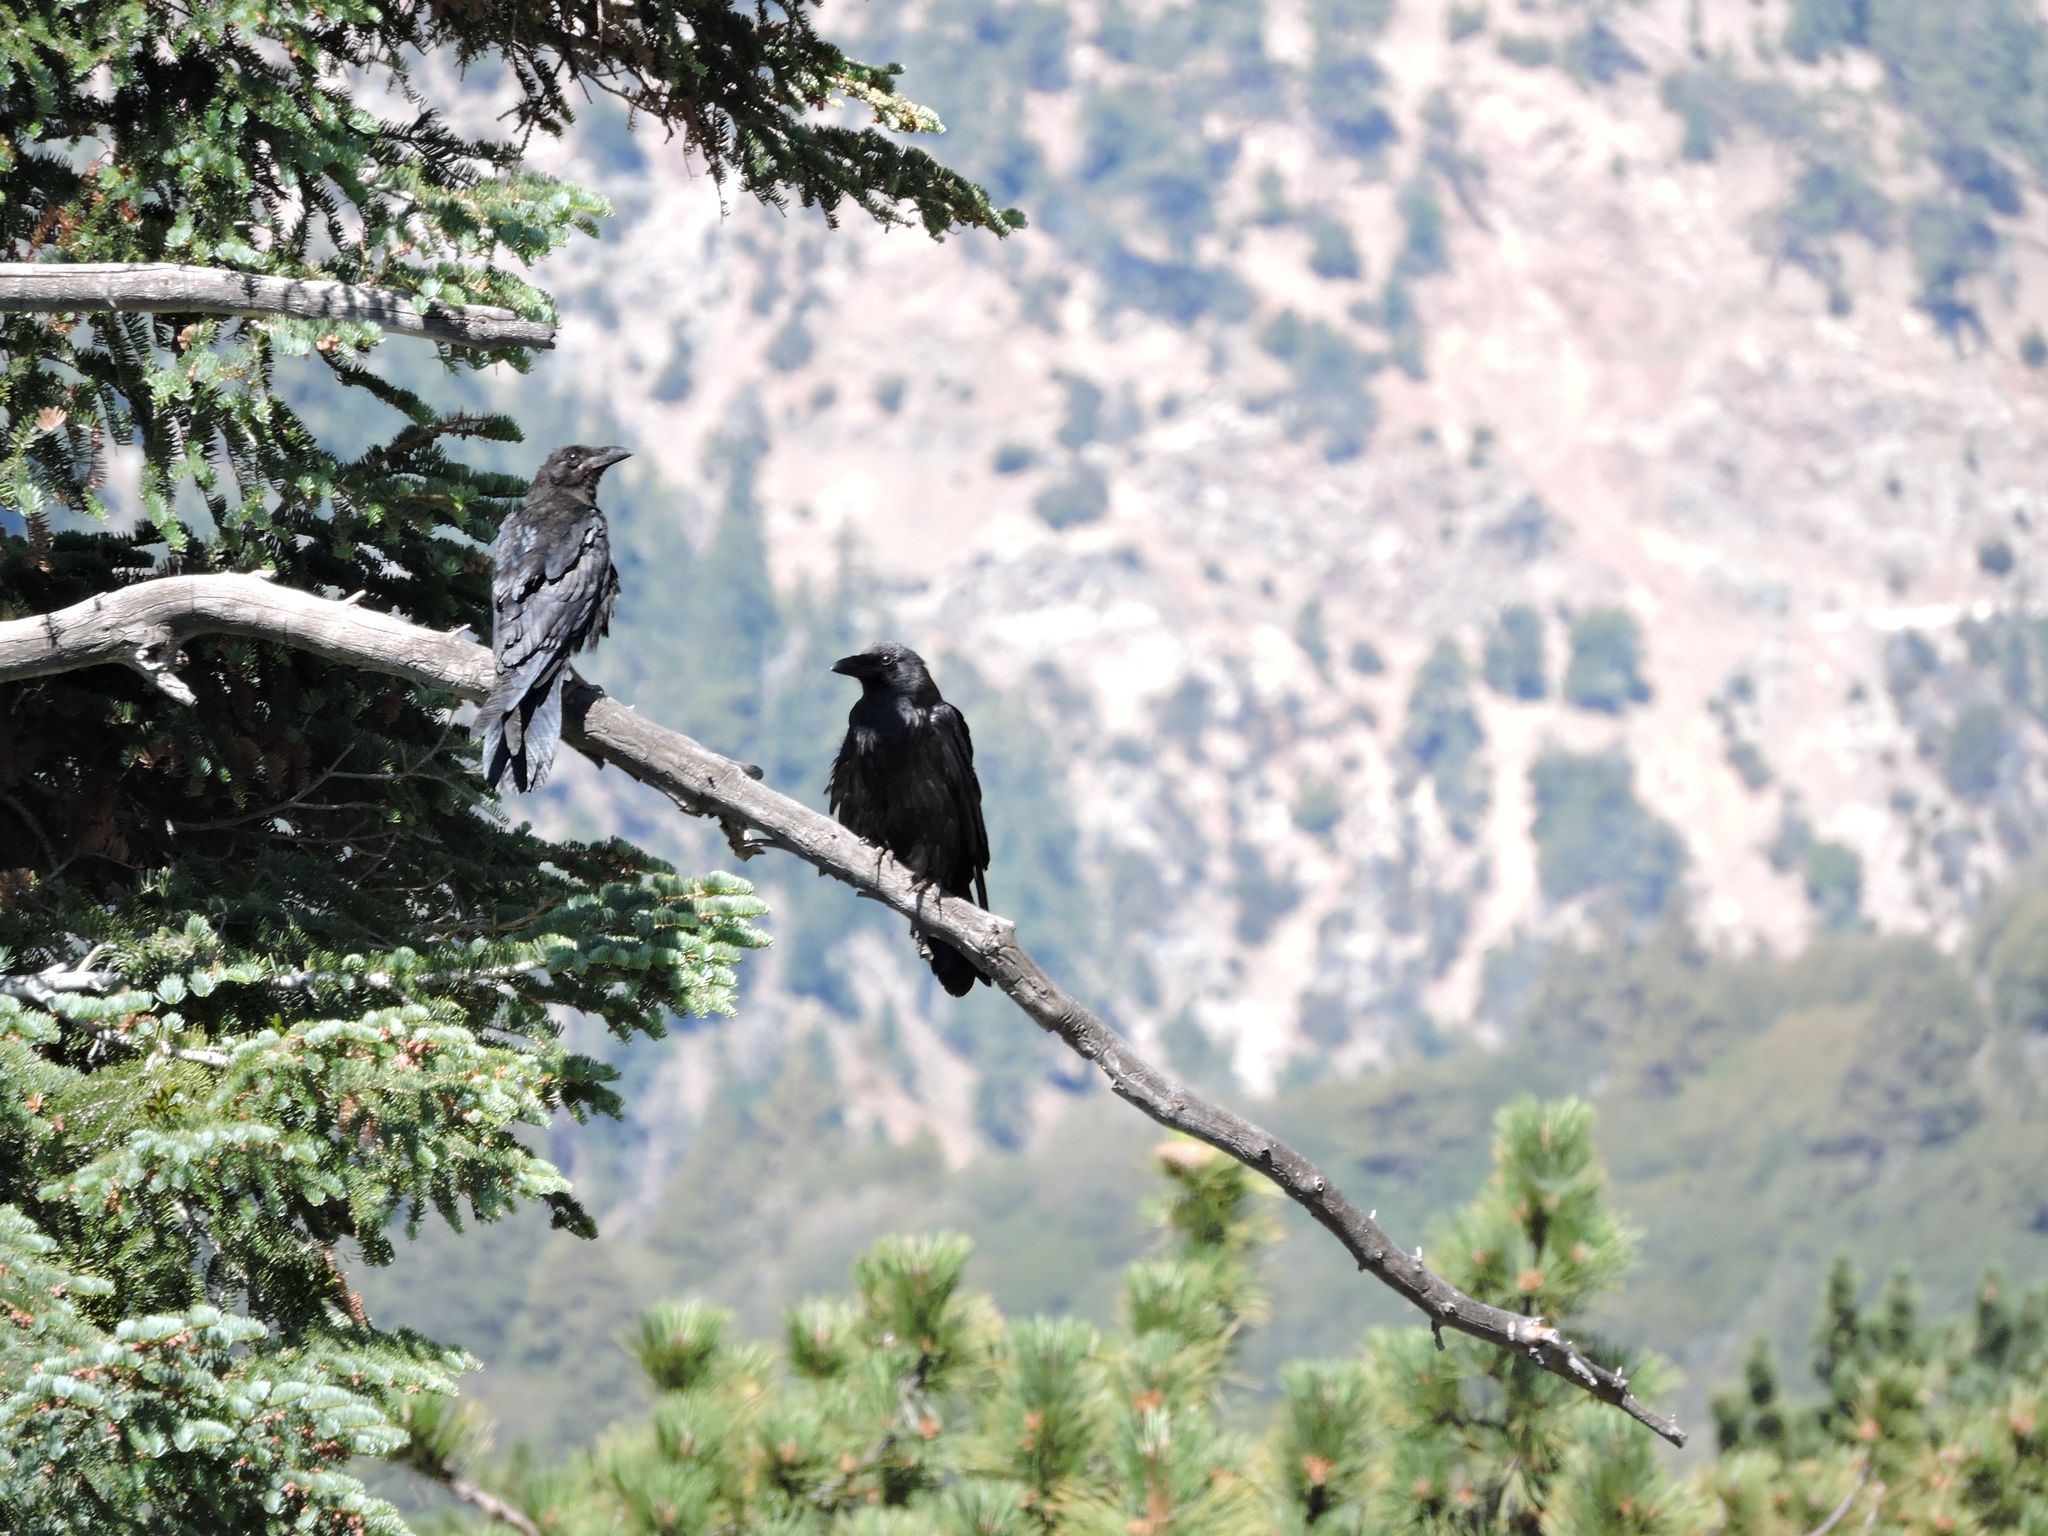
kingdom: Animalia
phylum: Chordata
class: Aves
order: Passeriformes
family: Corvidae
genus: Corvus
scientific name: Corvus corax
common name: Common raven
